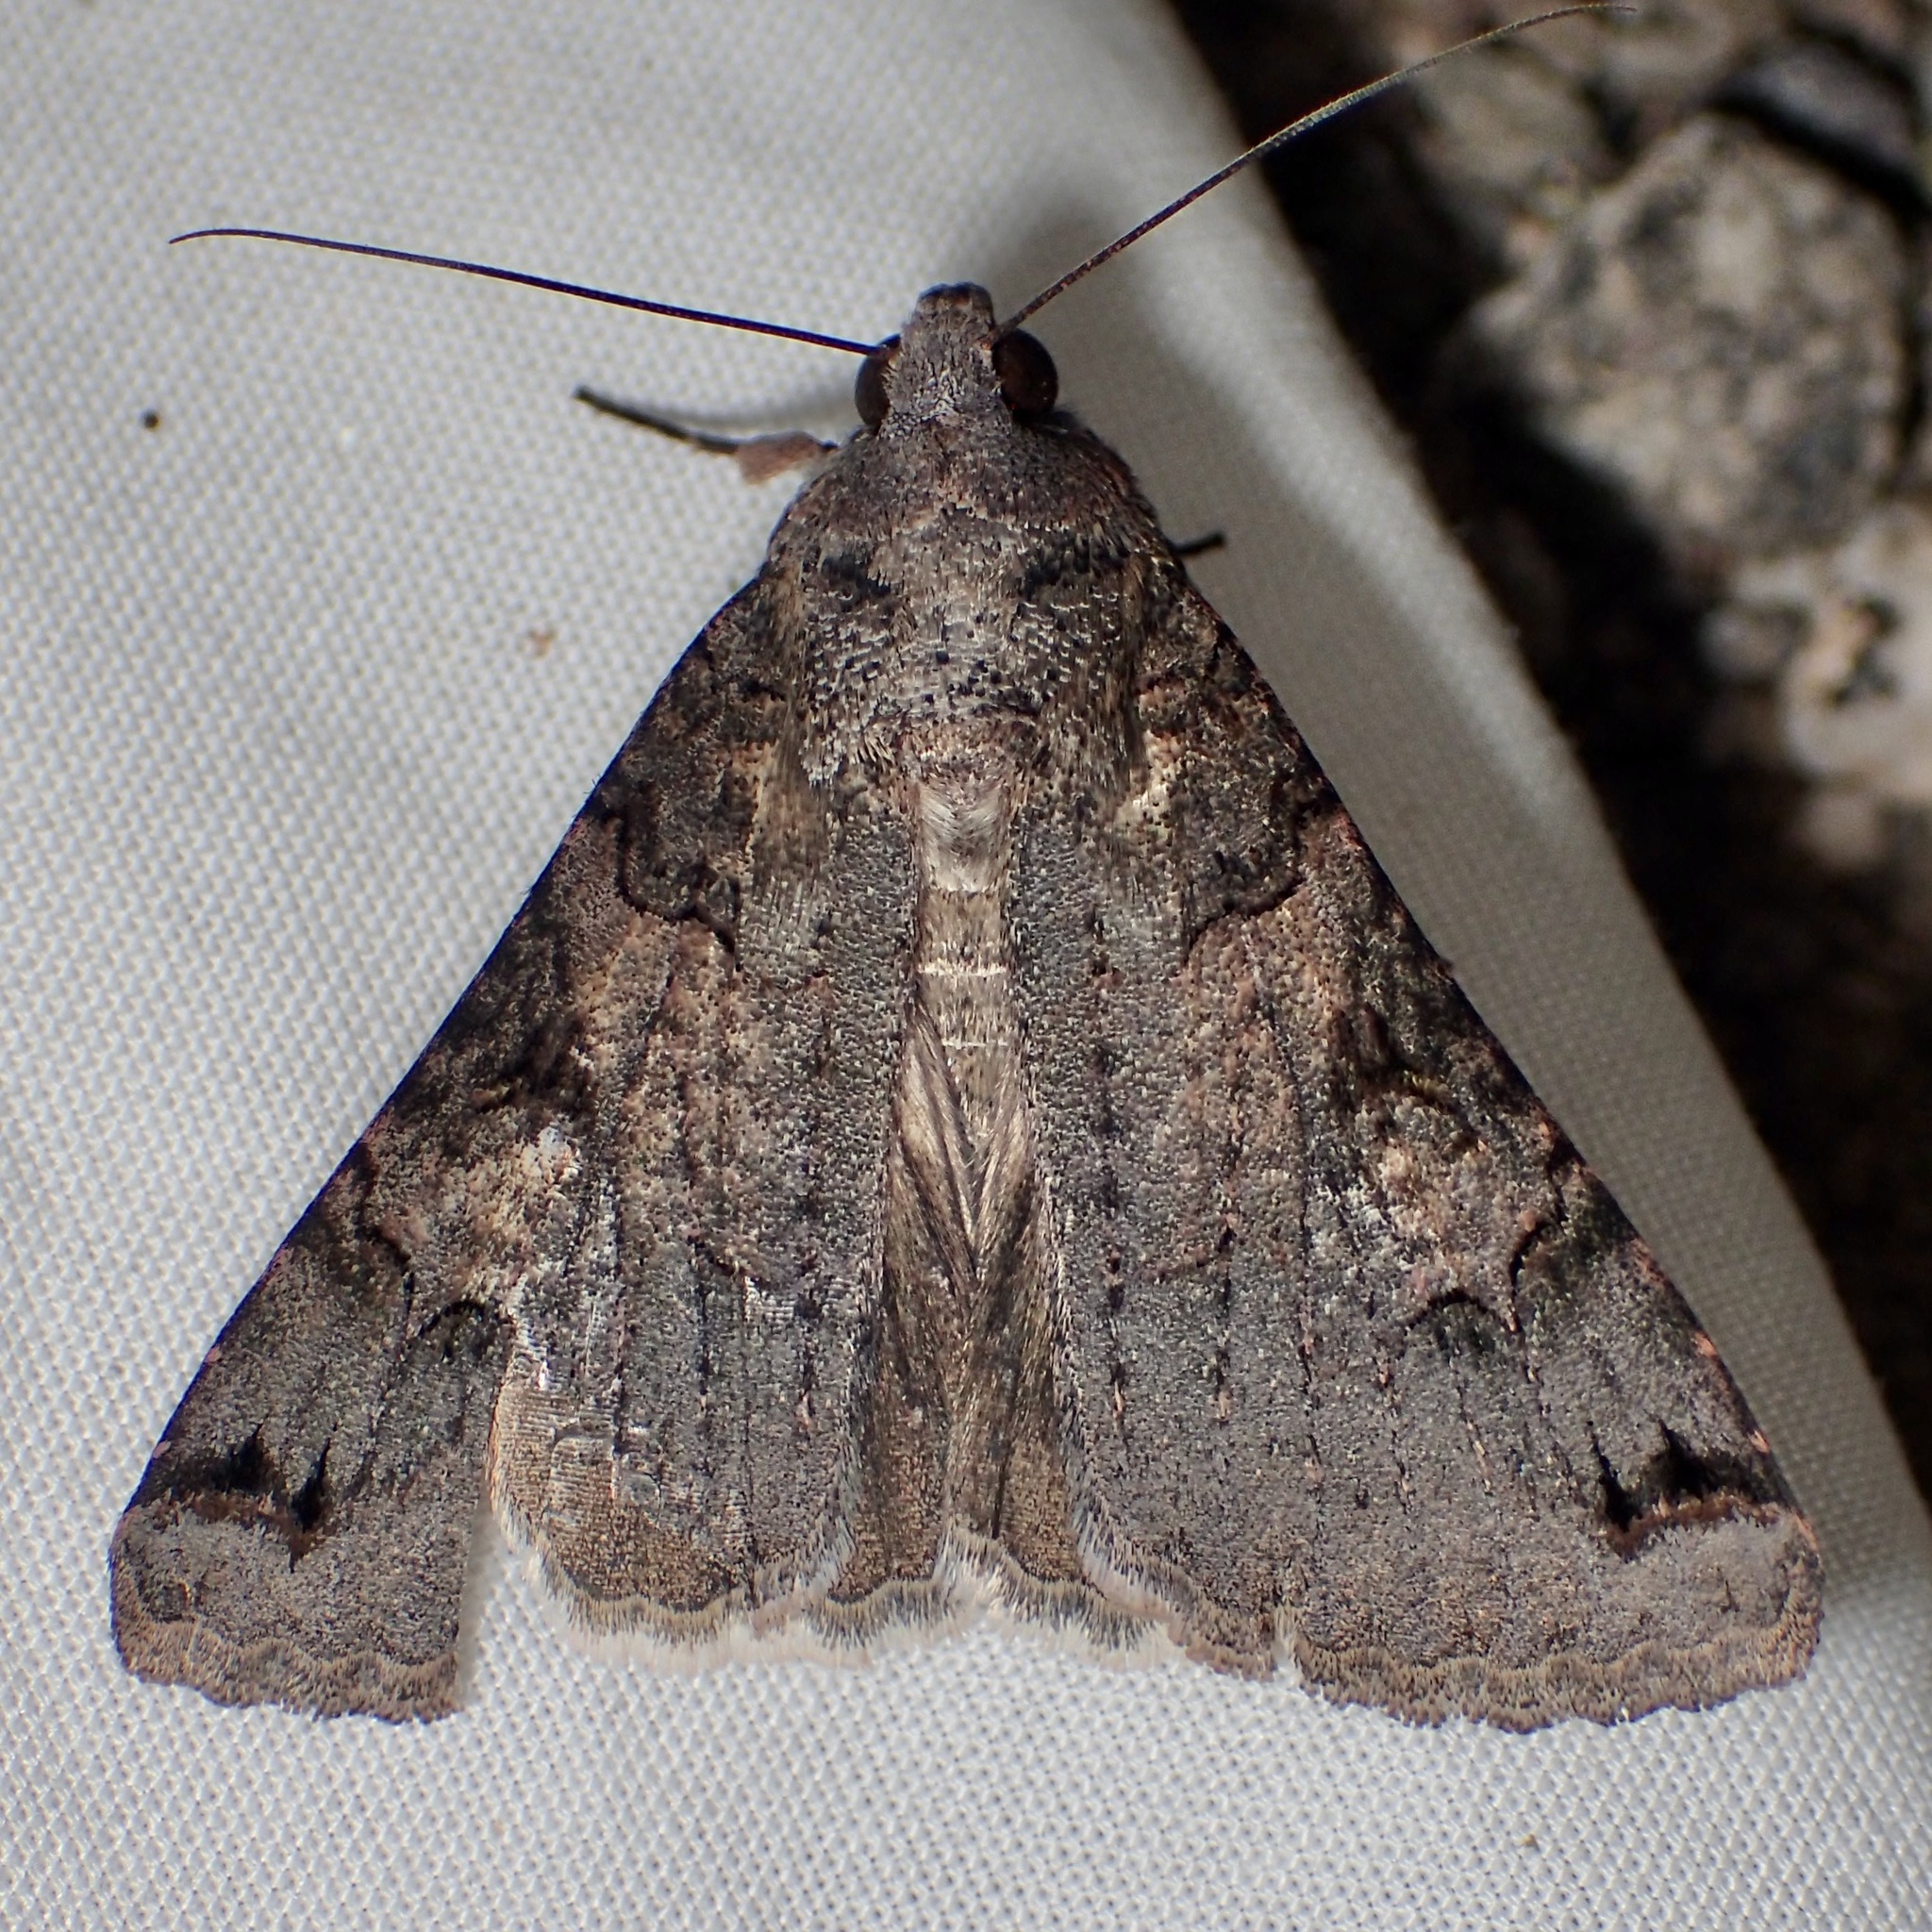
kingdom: Animalia
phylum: Arthropoda
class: Insecta
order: Lepidoptera
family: Erebidae
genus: Melipotis
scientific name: Melipotis novanda
